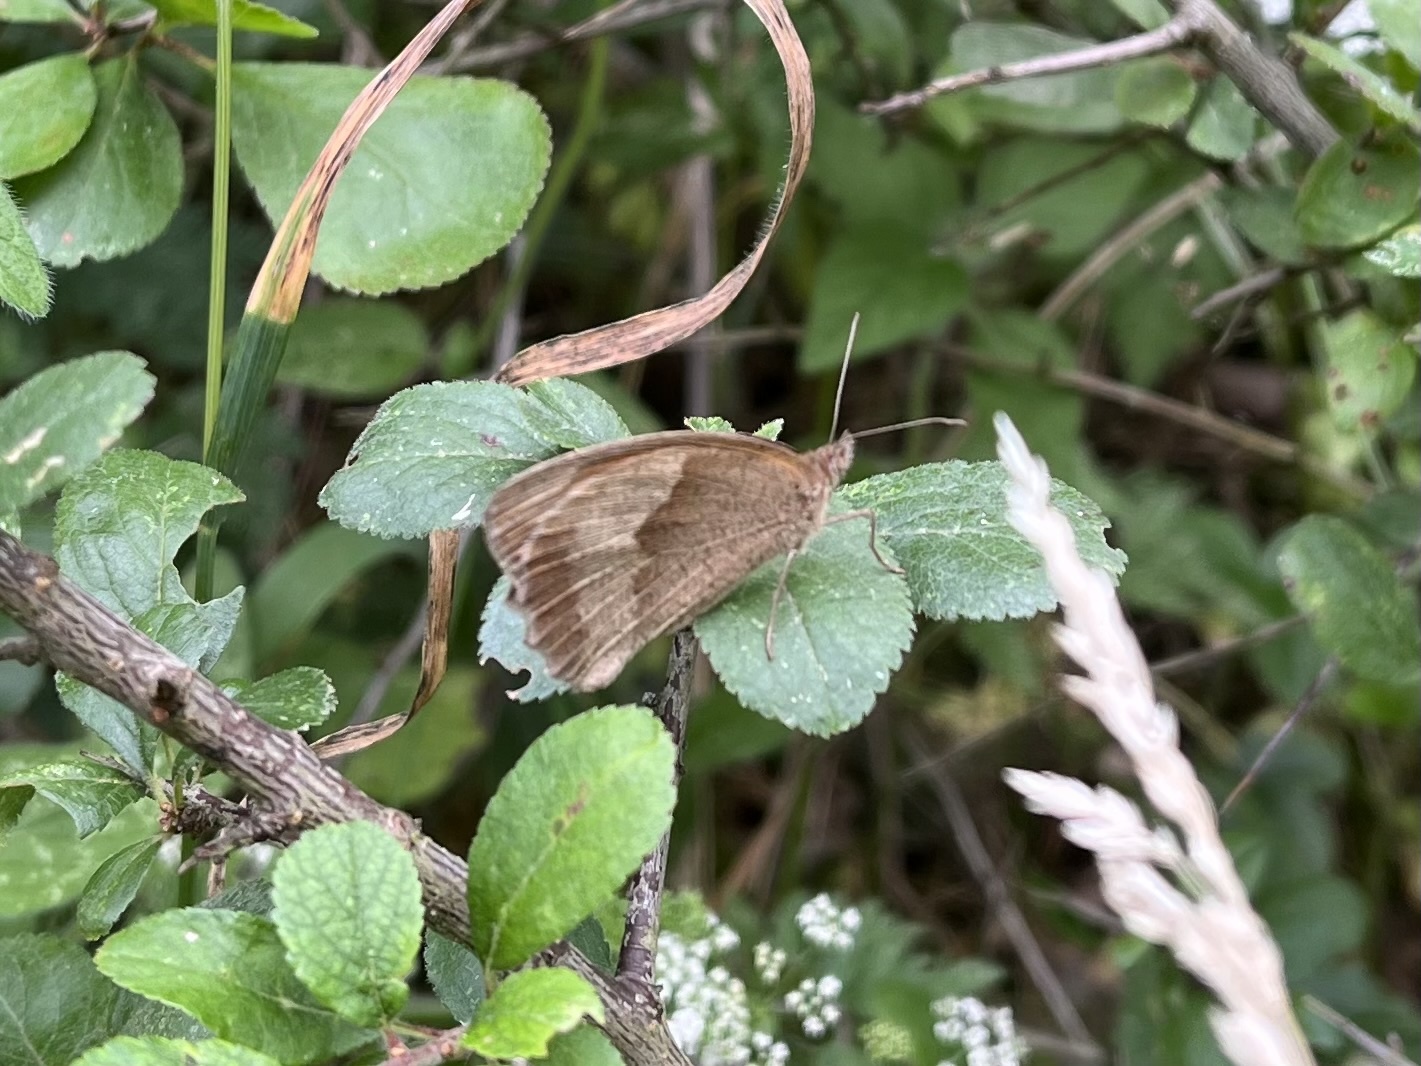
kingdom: Animalia
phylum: Arthropoda
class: Insecta
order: Lepidoptera
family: Nymphalidae
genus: Maniola
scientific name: Maniola jurtina
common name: Meadow brown
